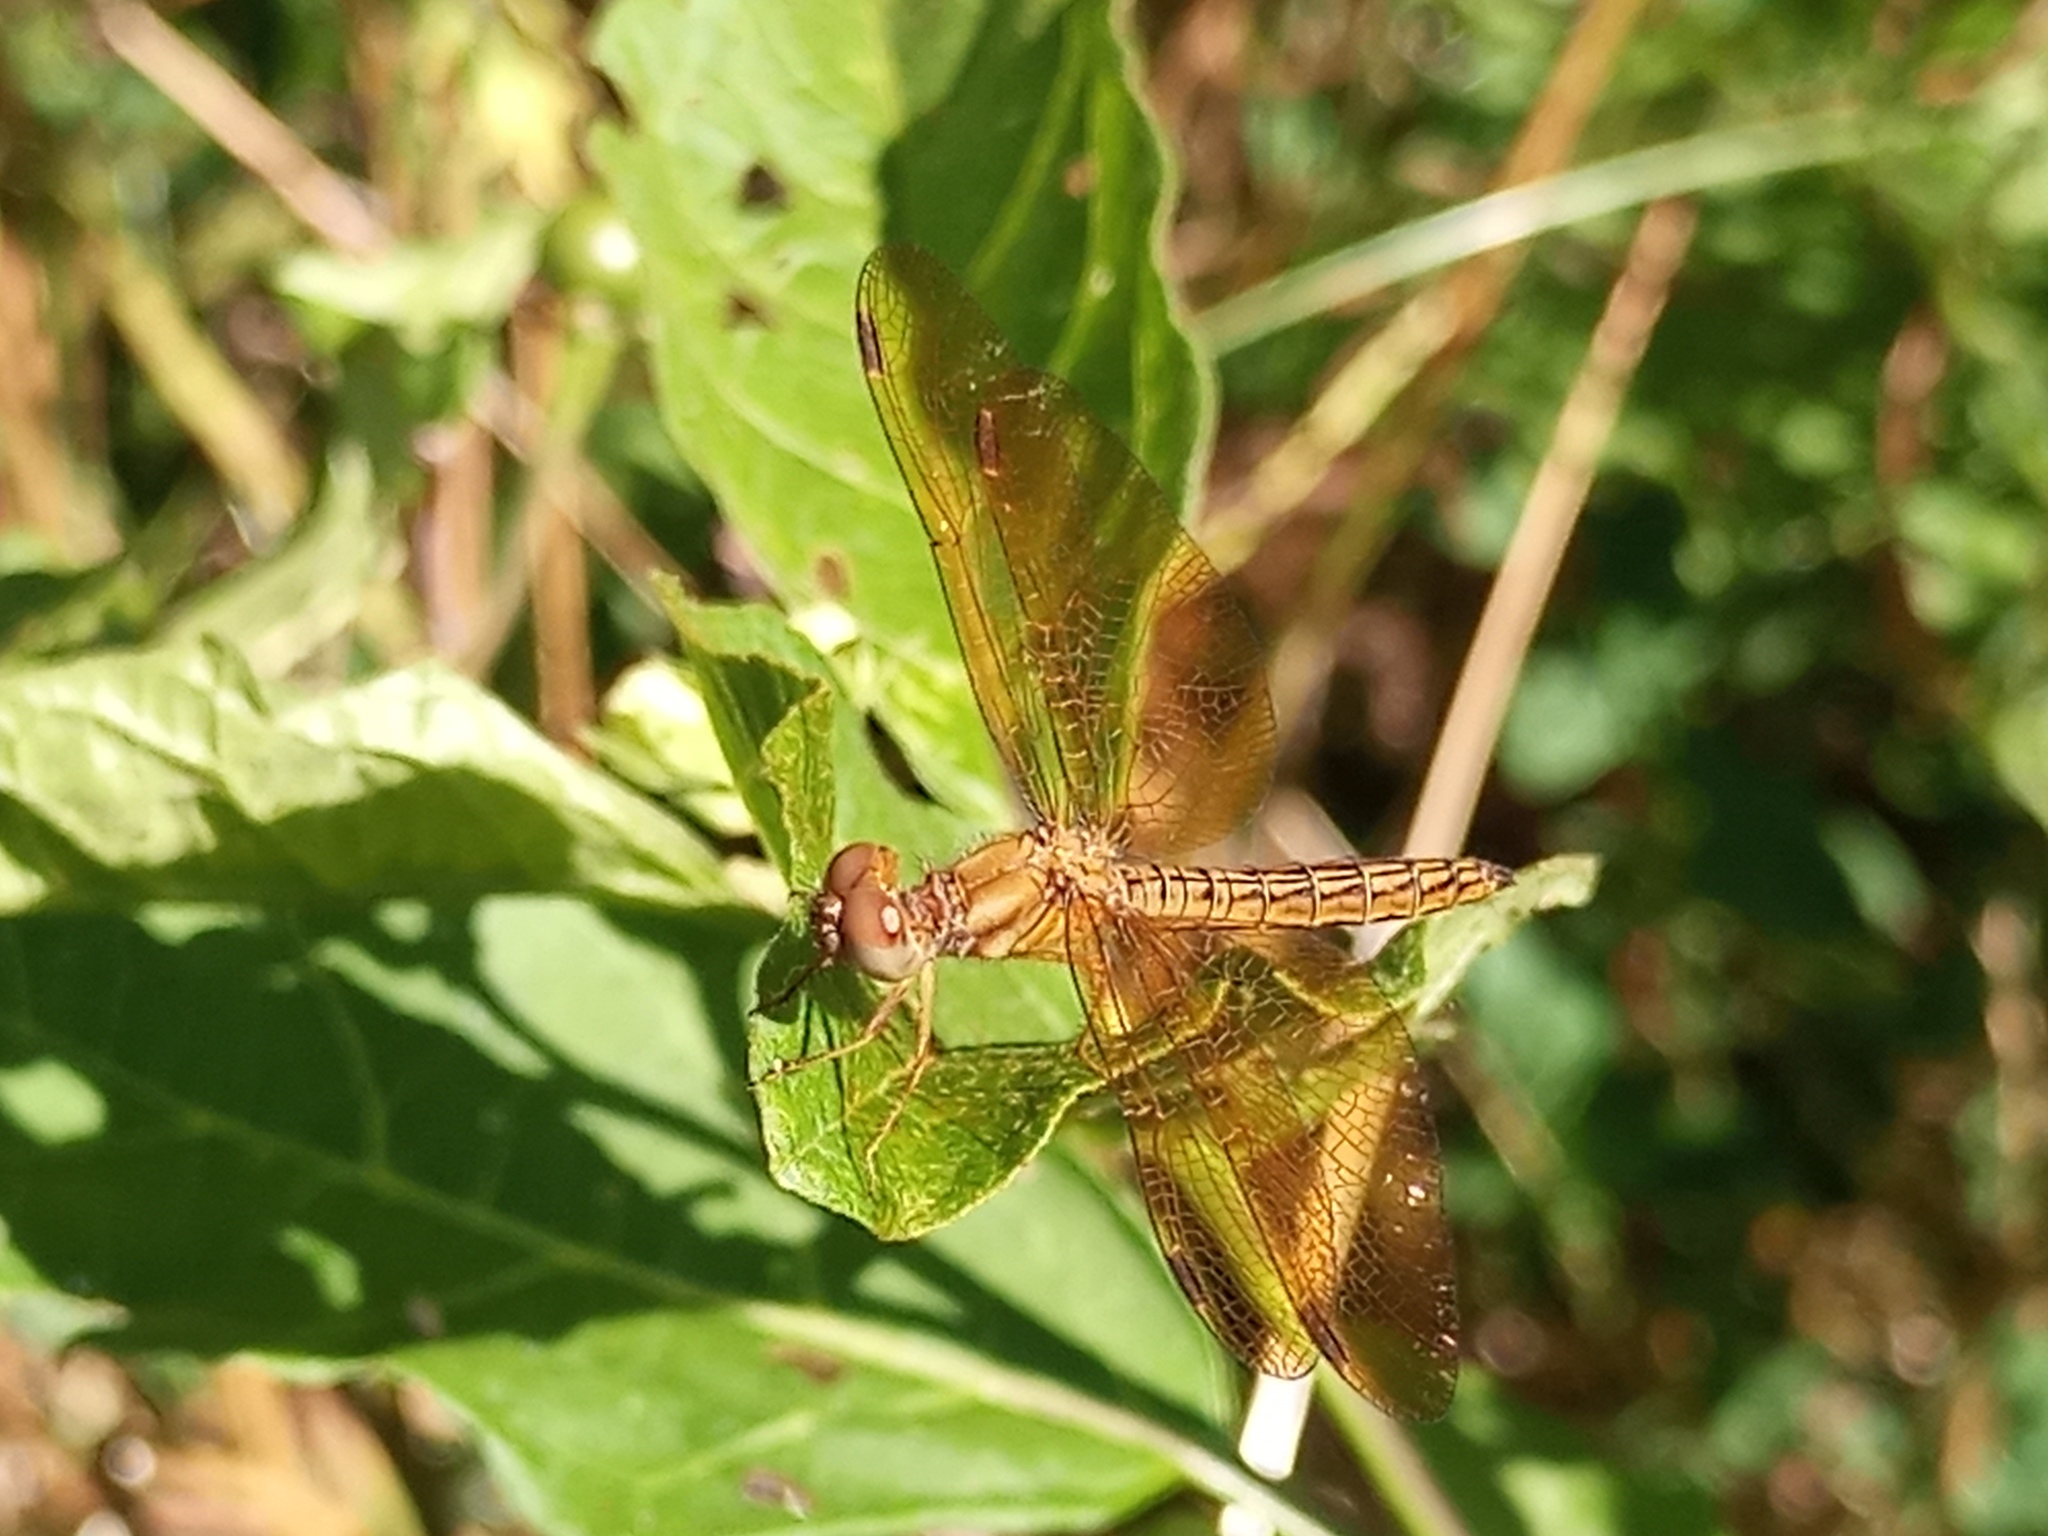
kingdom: Animalia
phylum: Arthropoda
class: Insecta
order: Odonata
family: Libellulidae
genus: Perithemis
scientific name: Perithemis icteroptera
